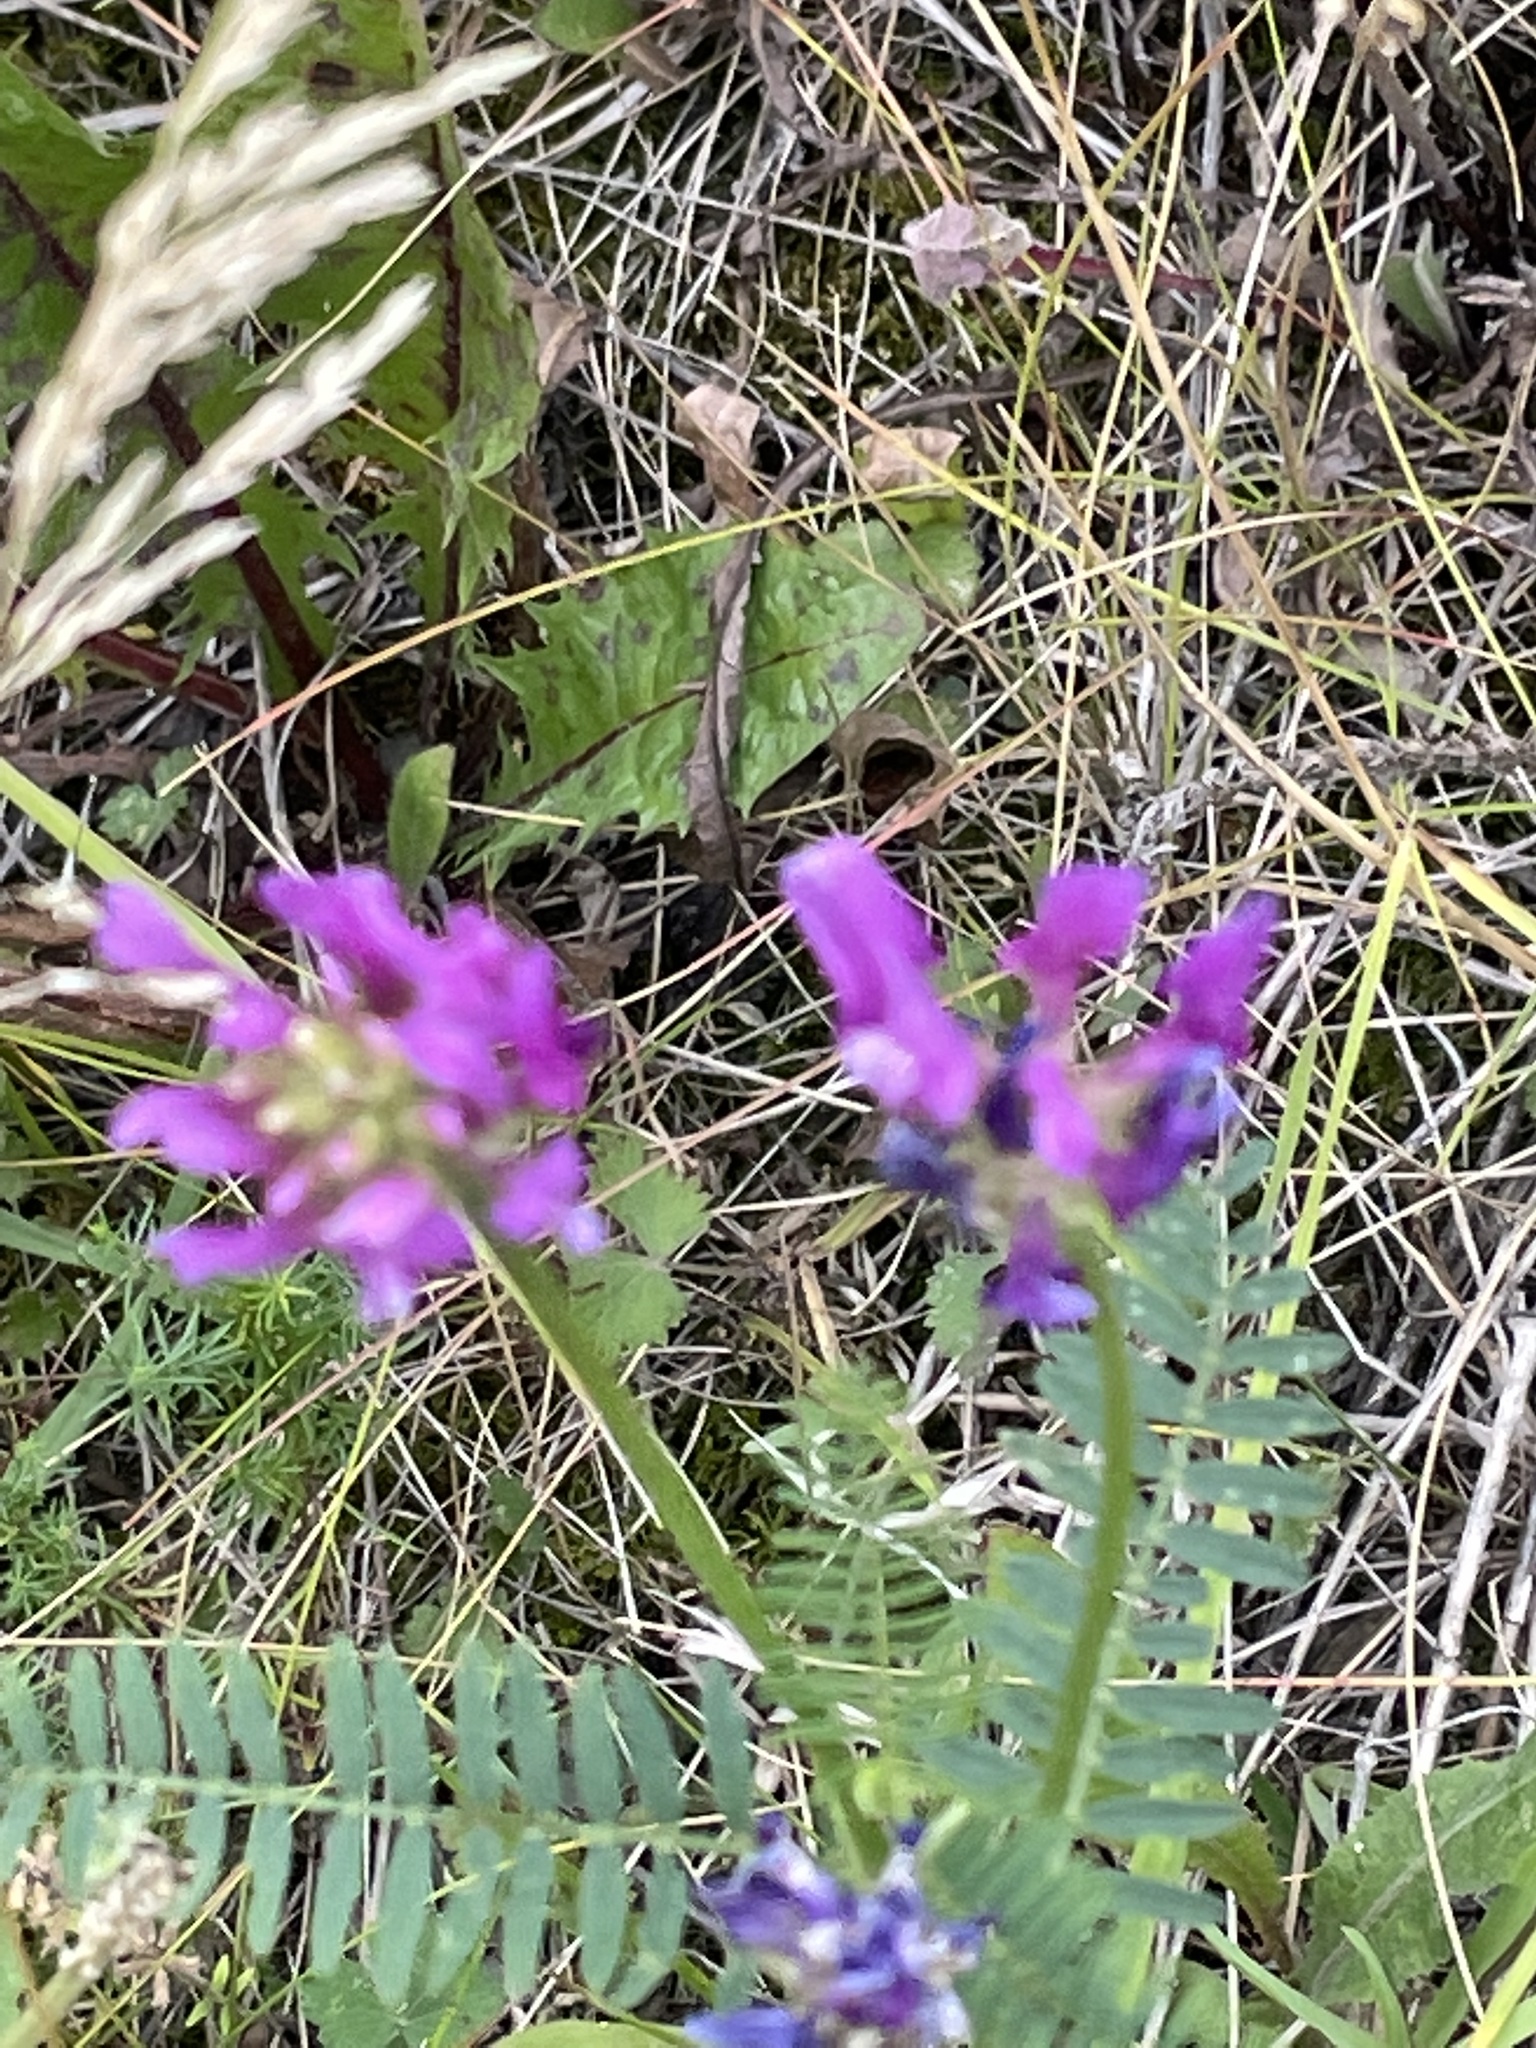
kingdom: Plantae
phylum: Tracheophyta
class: Magnoliopsida
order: Fabales
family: Fabaceae
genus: Astragalus
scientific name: Astragalus onobrychis
